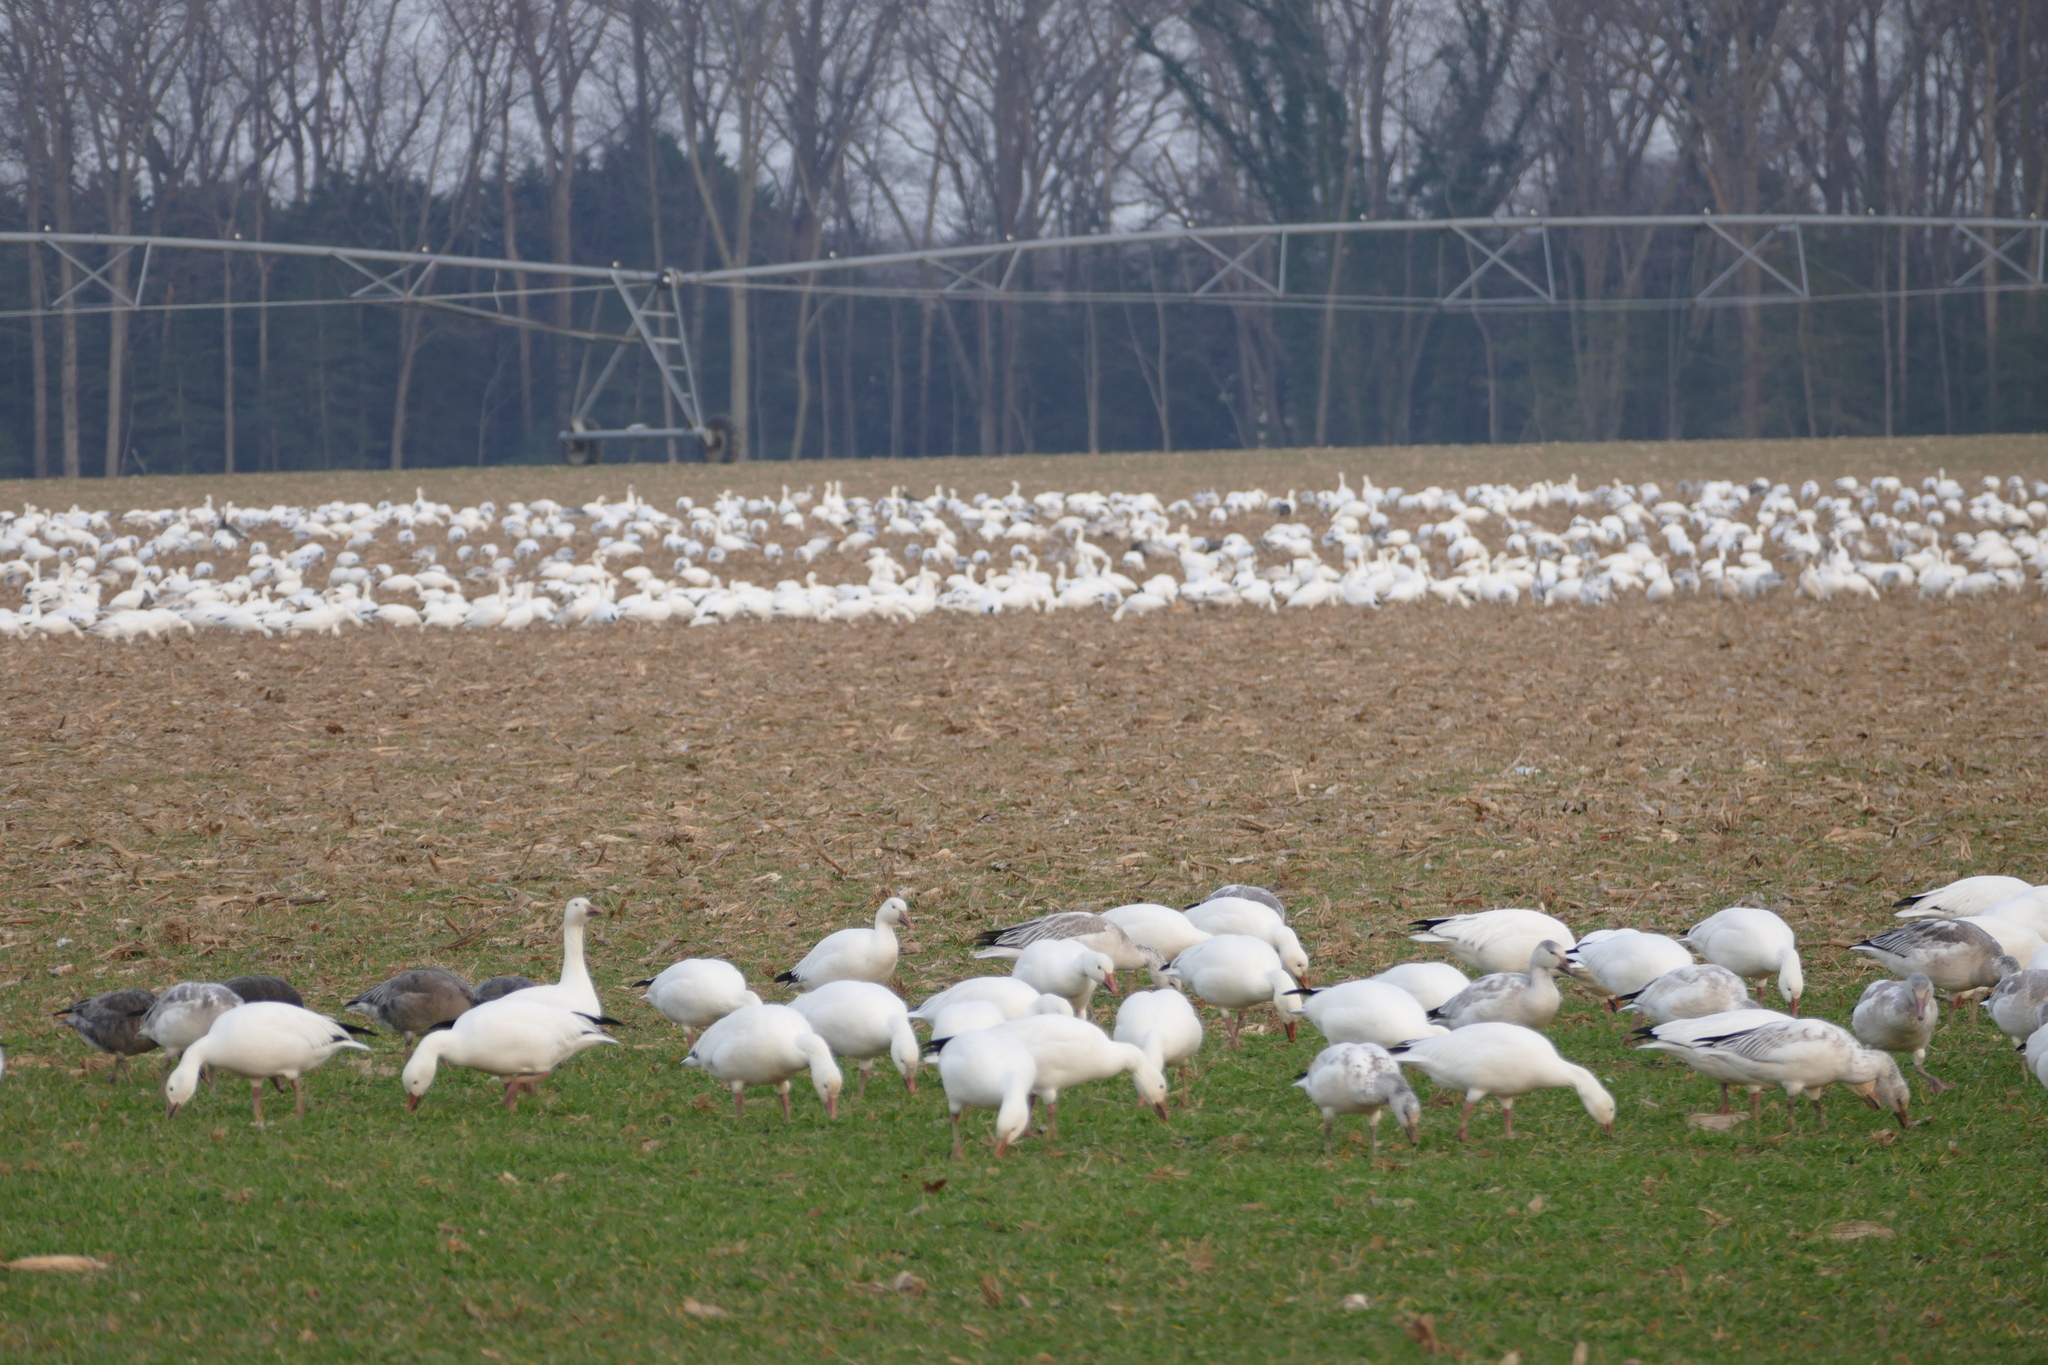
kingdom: Animalia
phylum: Chordata
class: Aves
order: Anseriformes
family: Anatidae
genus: Anser
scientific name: Anser caerulescens
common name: Snow goose
